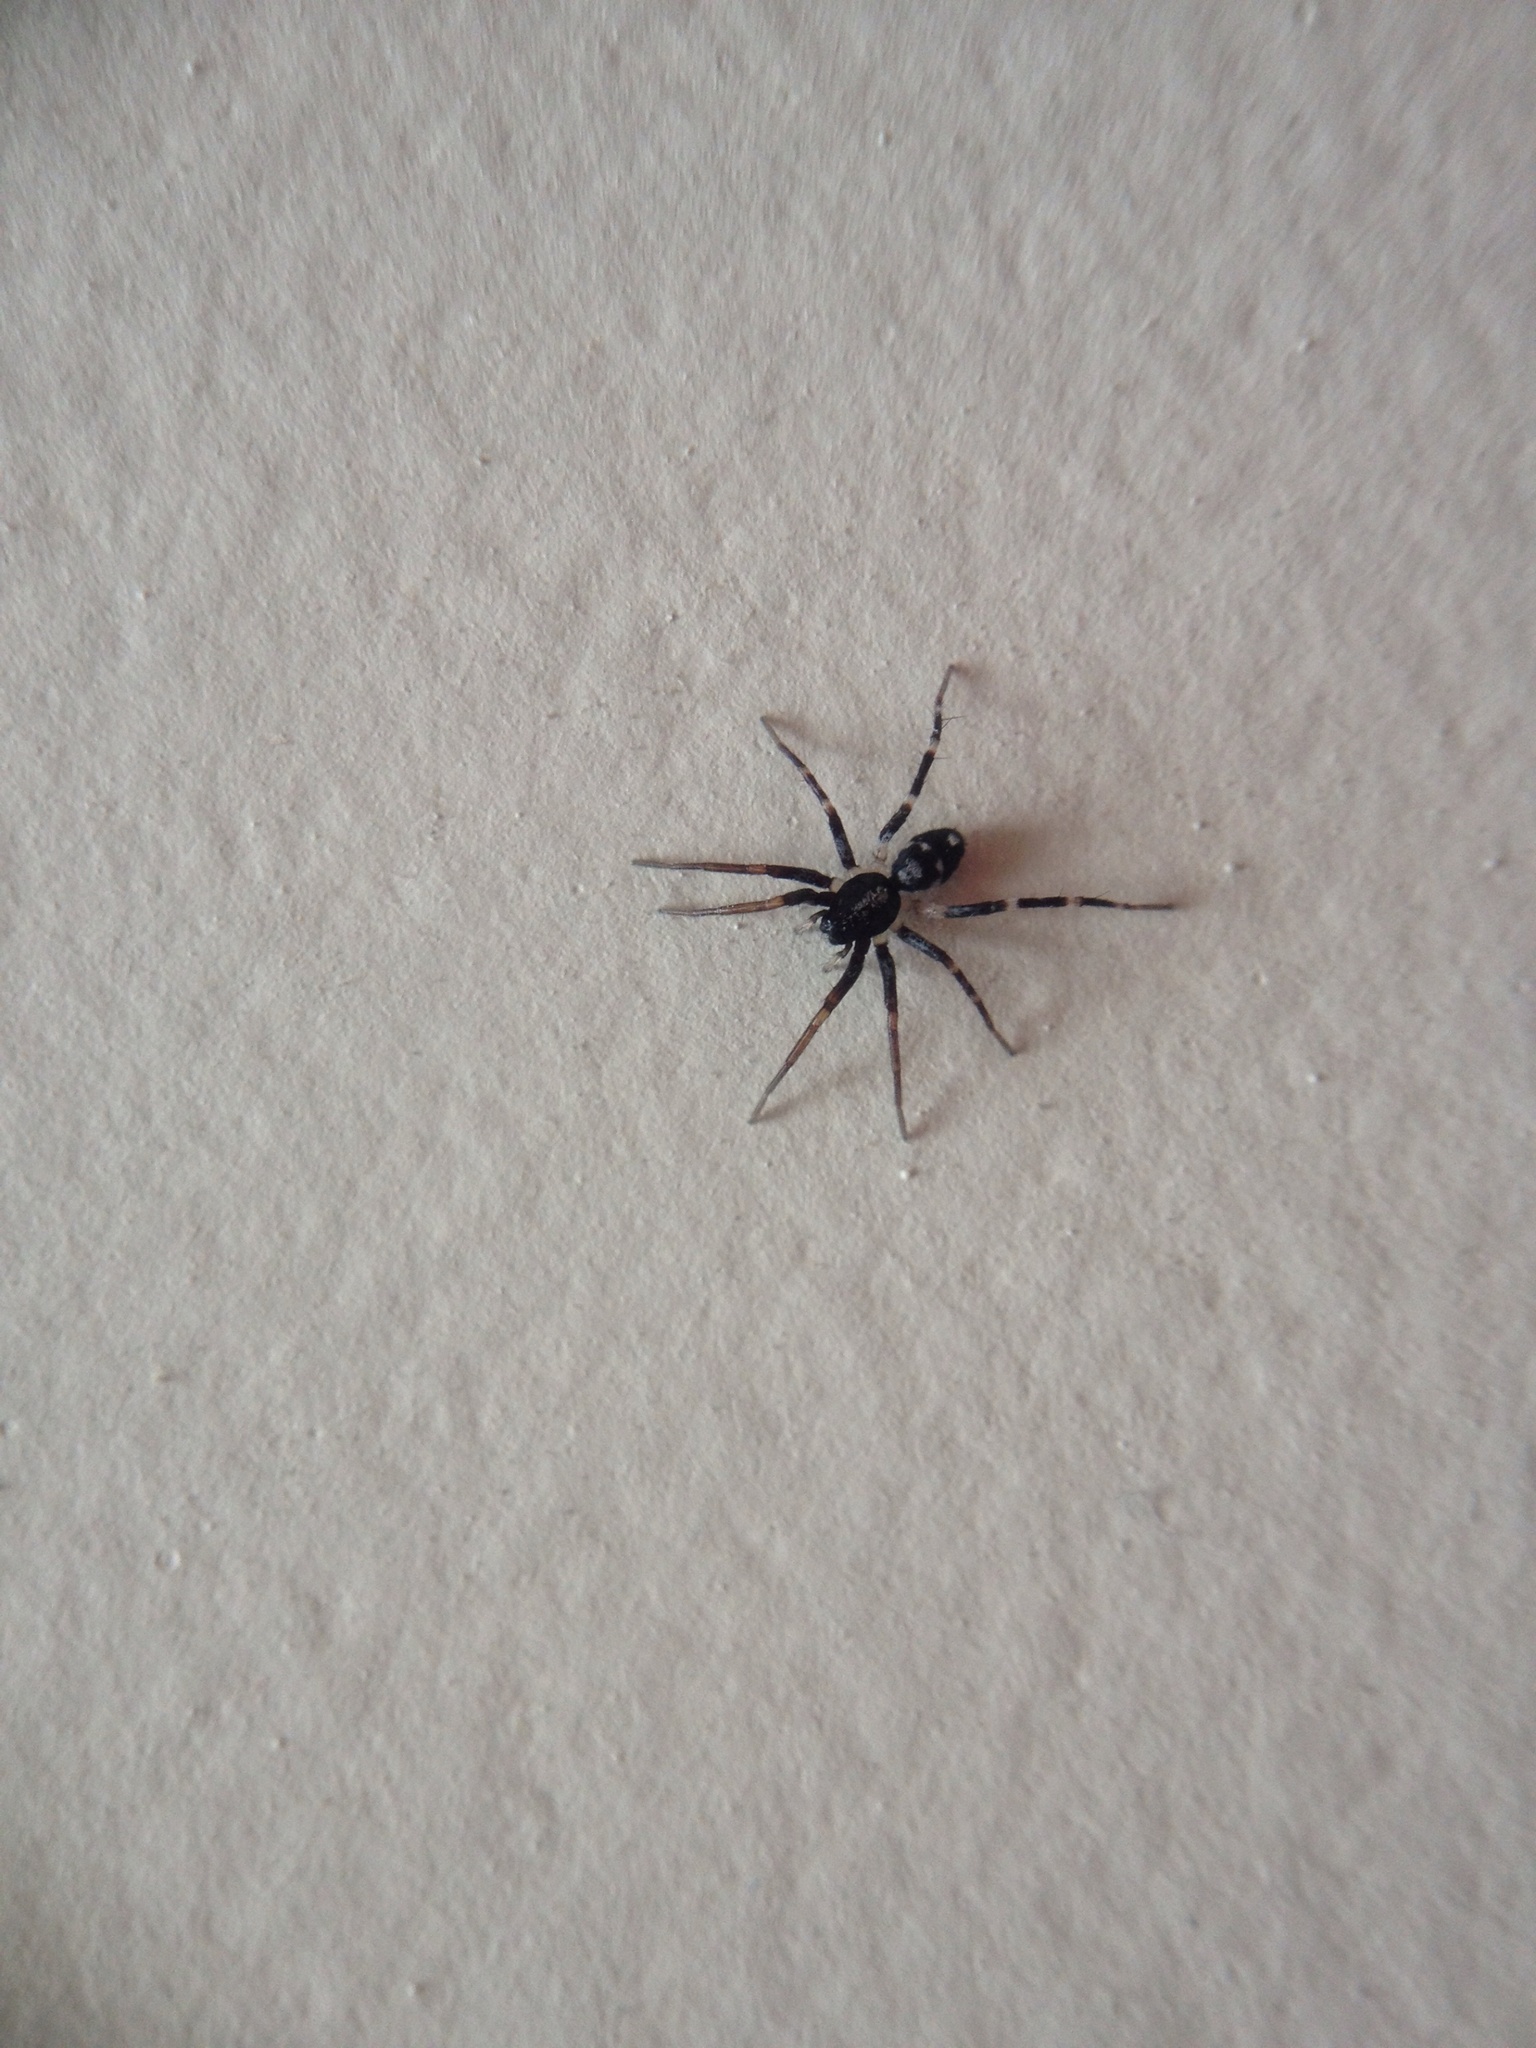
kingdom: Animalia
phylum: Arthropoda
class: Arachnida
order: Araneae
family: Corinnidae
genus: Nyssus
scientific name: Nyssus coloripes
